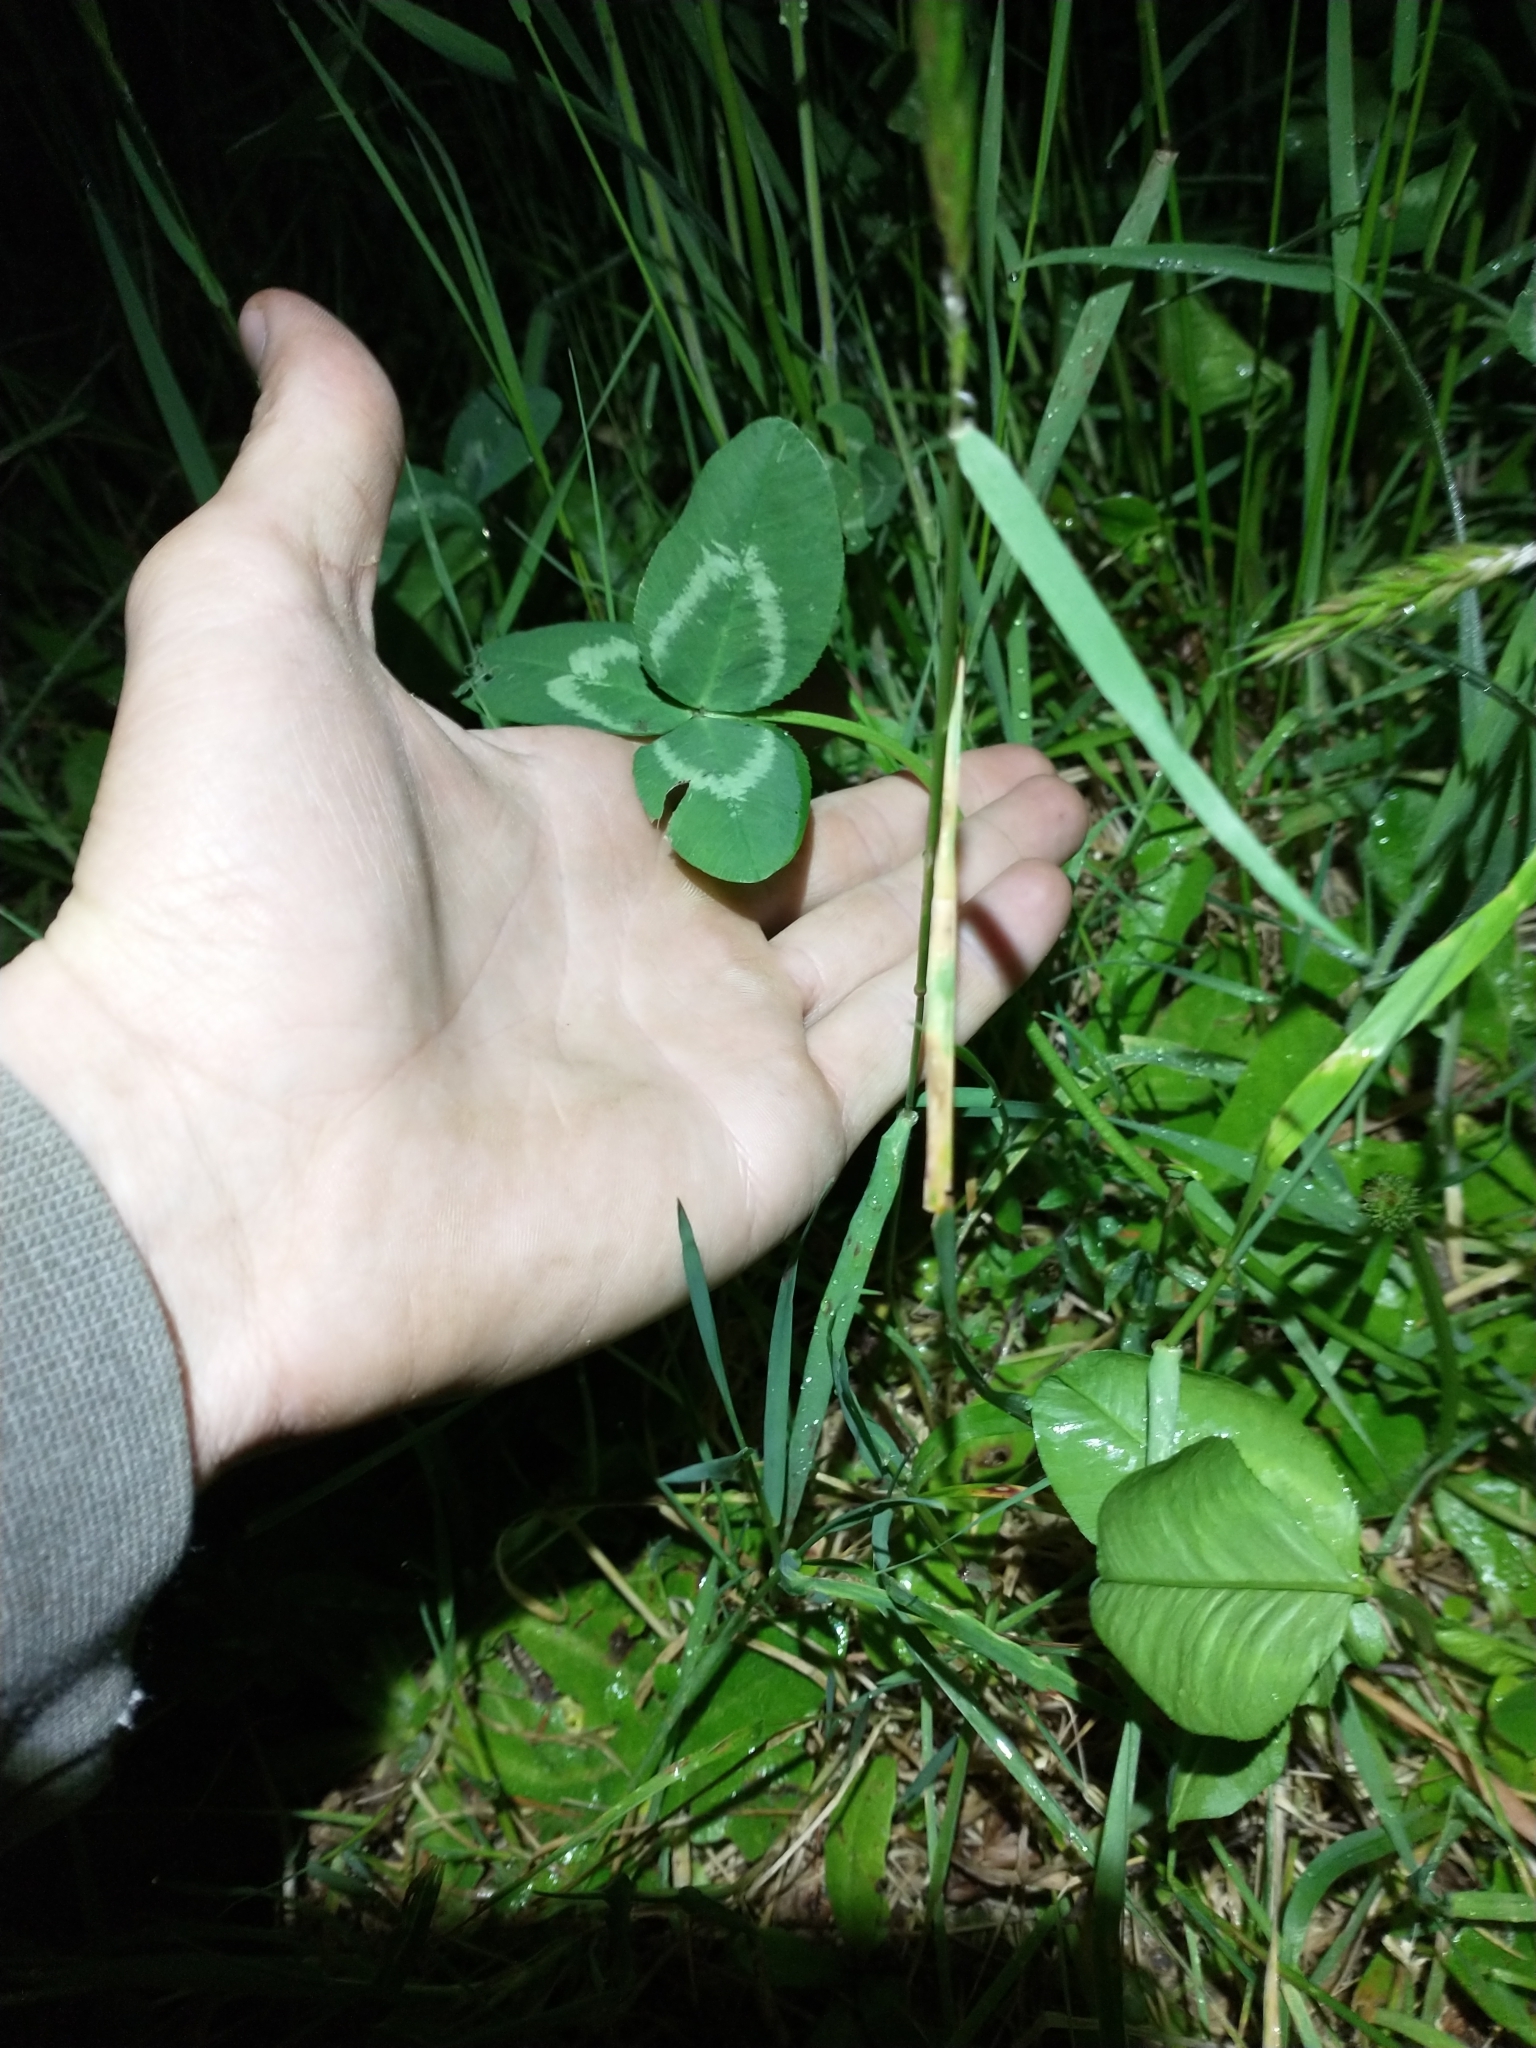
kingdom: Plantae
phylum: Tracheophyta
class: Magnoliopsida
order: Fabales
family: Fabaceae
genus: Trifolium
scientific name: Trifolium repens
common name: White clover
